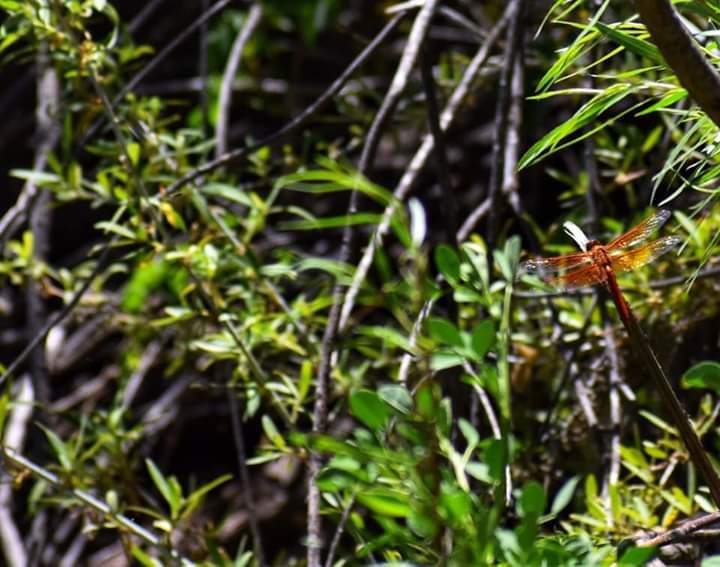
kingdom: Animalia
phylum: Arthropoda
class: Insecta
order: Odonata
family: Libellulidae
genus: Libellula
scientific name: Libellula saturata
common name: Flame skimmer
